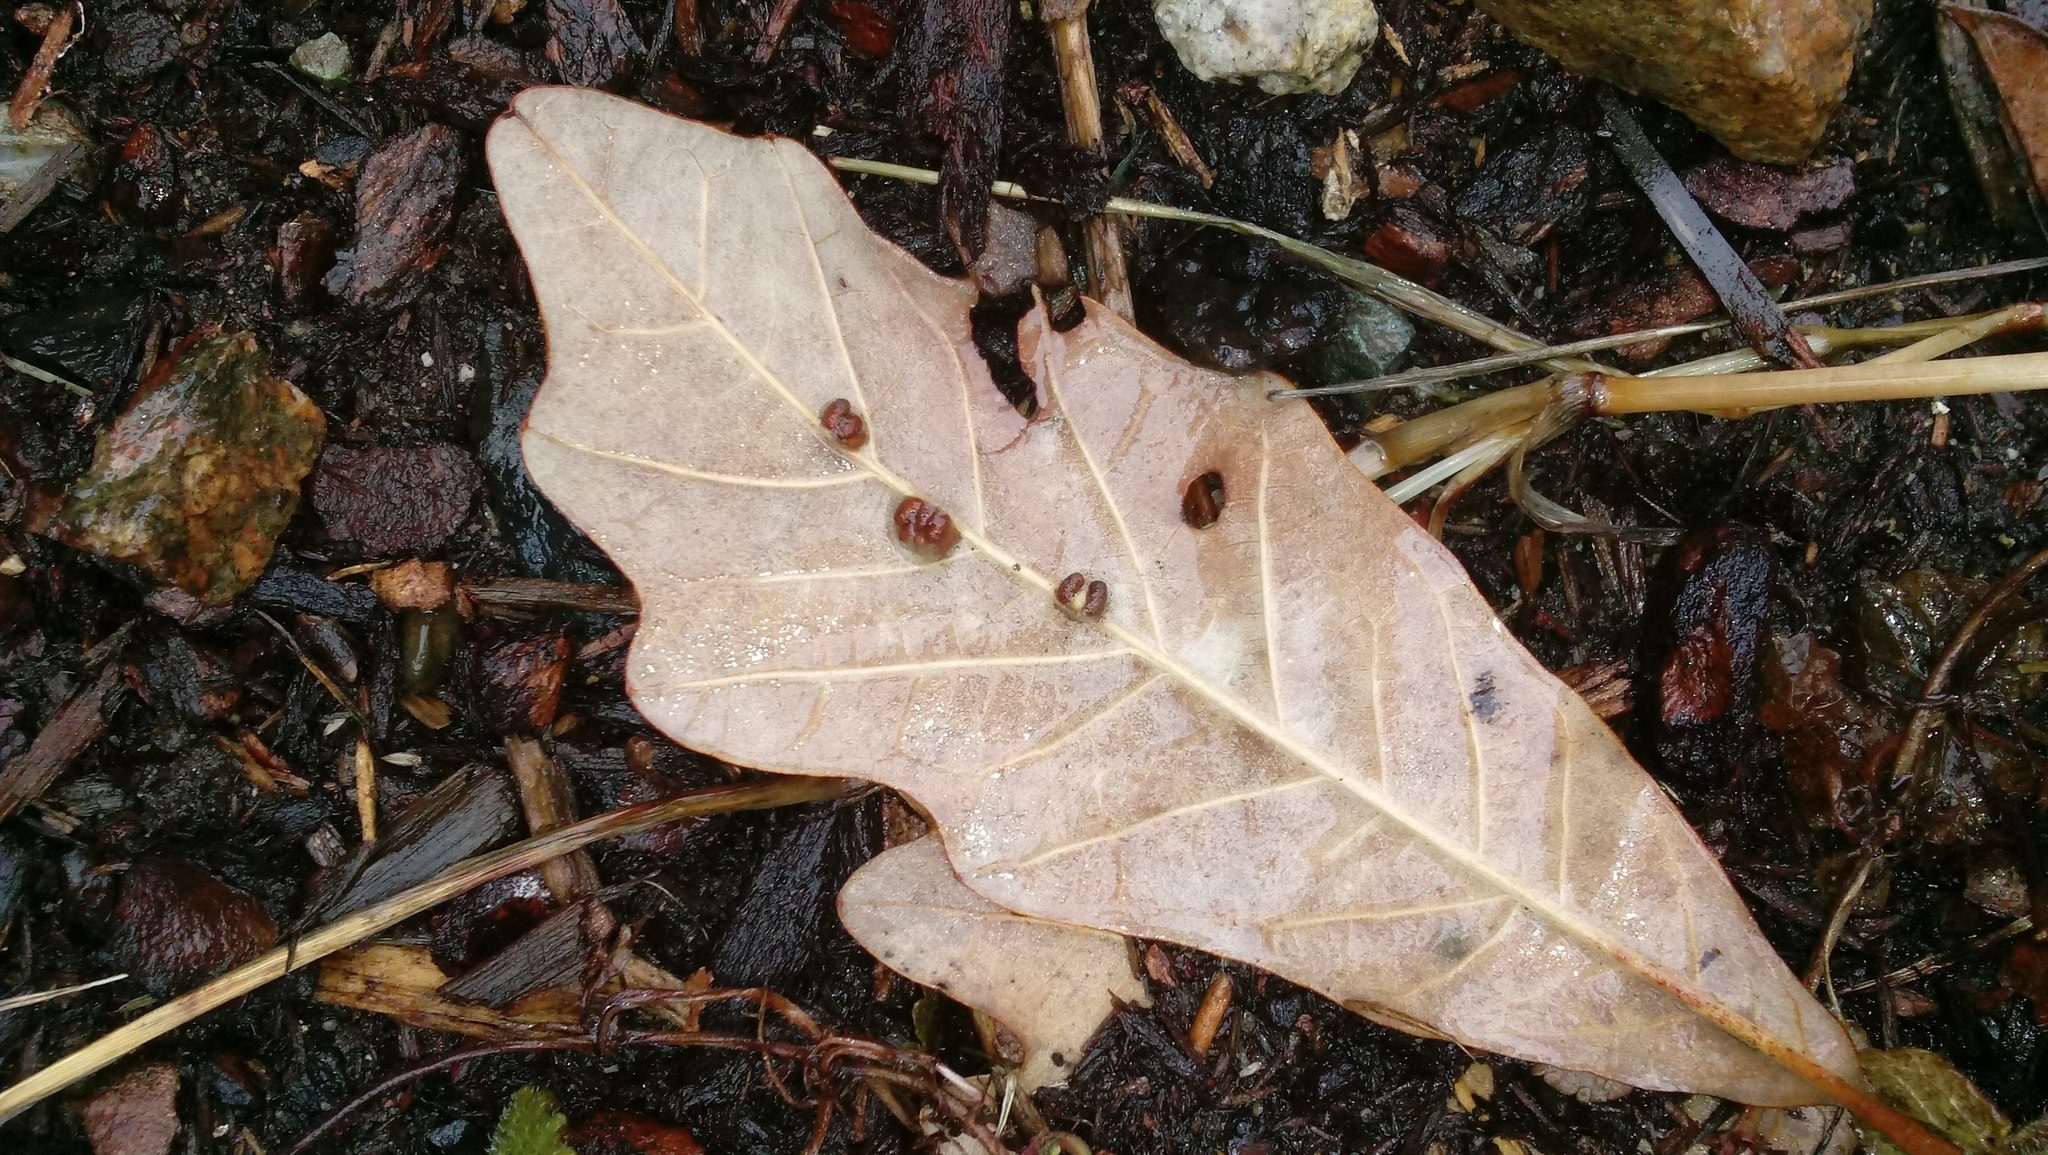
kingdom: Animalia
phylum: Arthropoda
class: Insecta
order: Hymenoptera
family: Cynipidae
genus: Andricus
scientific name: Andricus Druon ignotum
